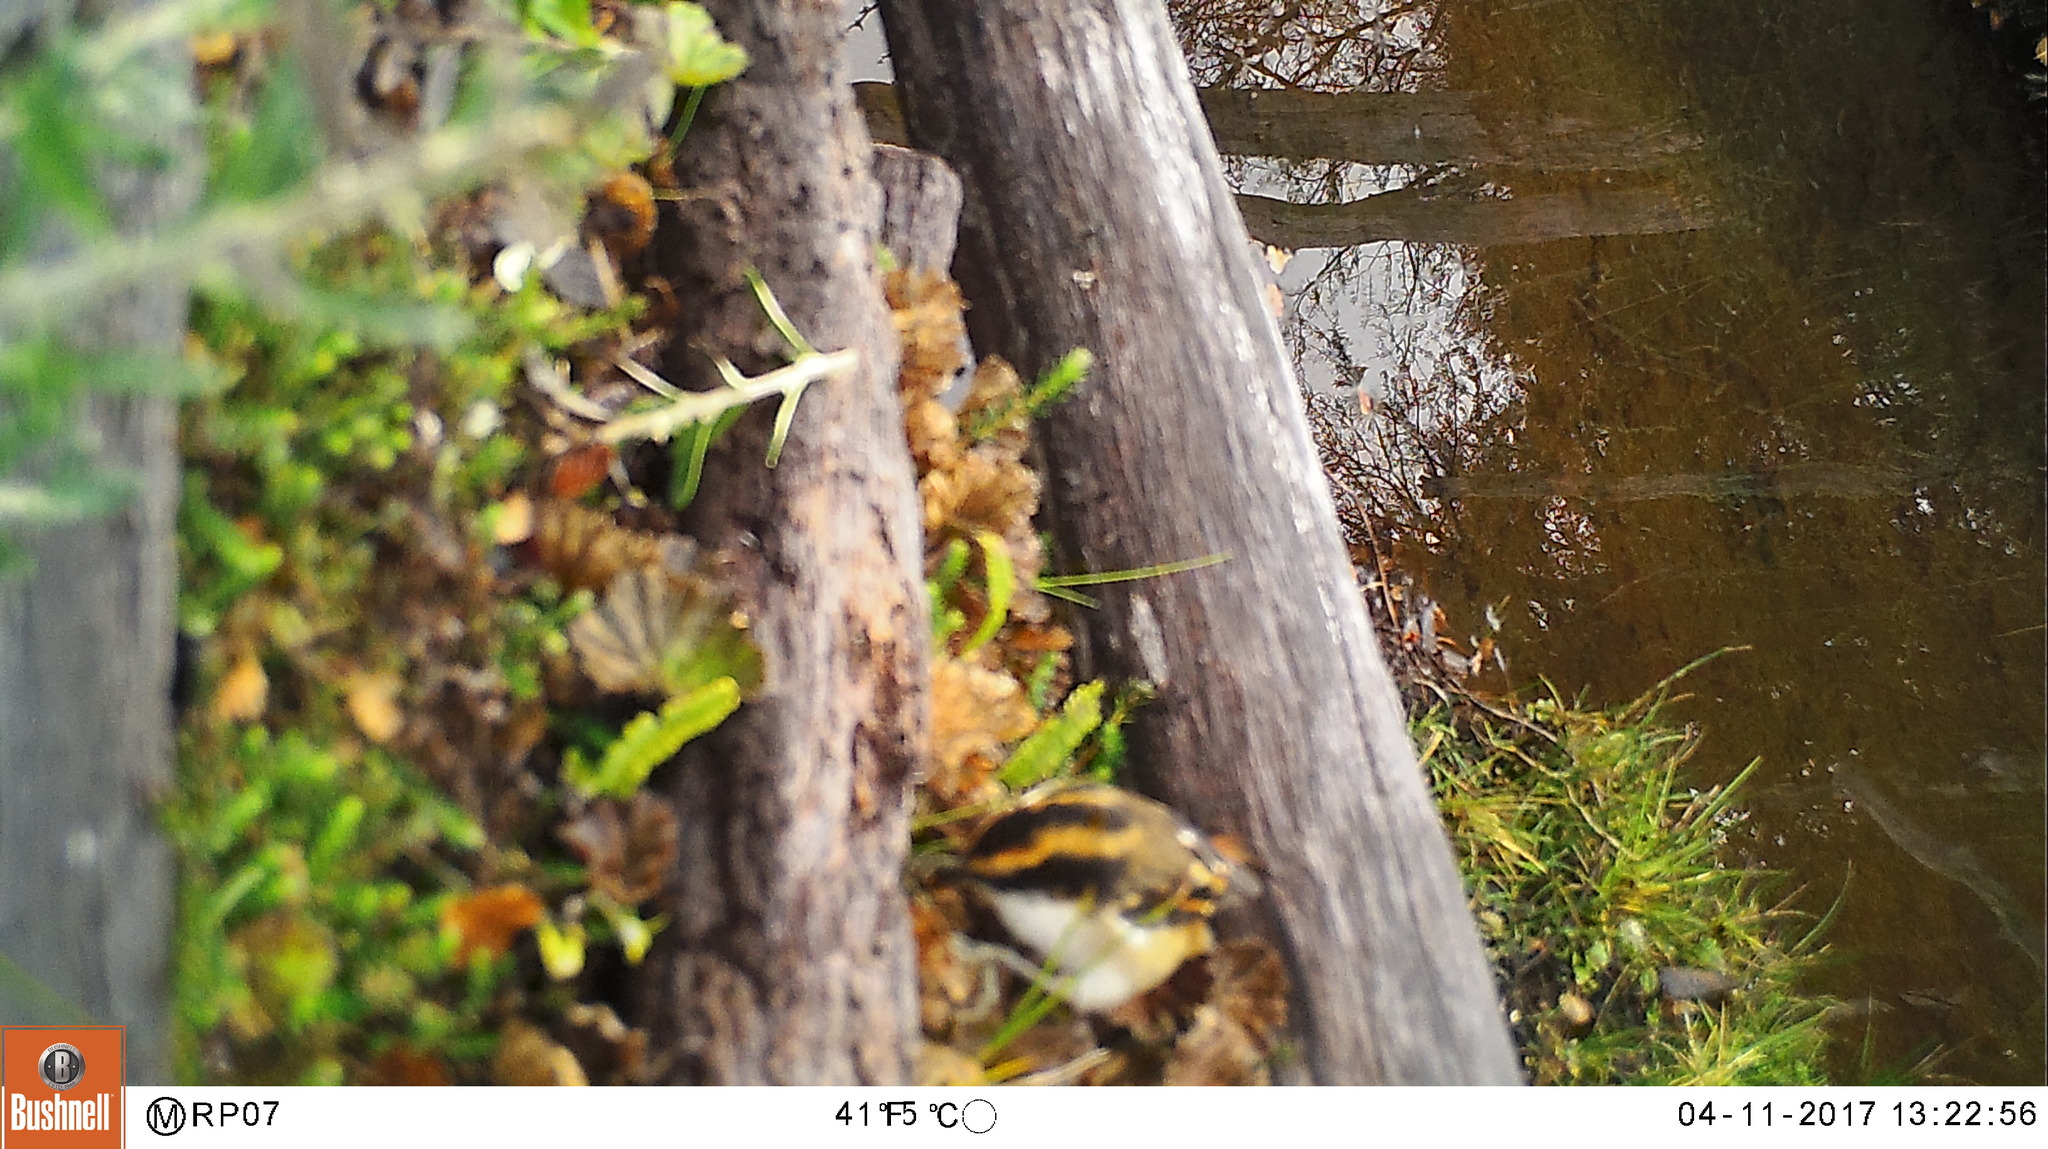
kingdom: Animalia
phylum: Chordata
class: Aves
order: Passeriformes
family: Furnariidae
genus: Aphrastura
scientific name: Aphrastura spinicauda
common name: Thorn-tailed rayadito
